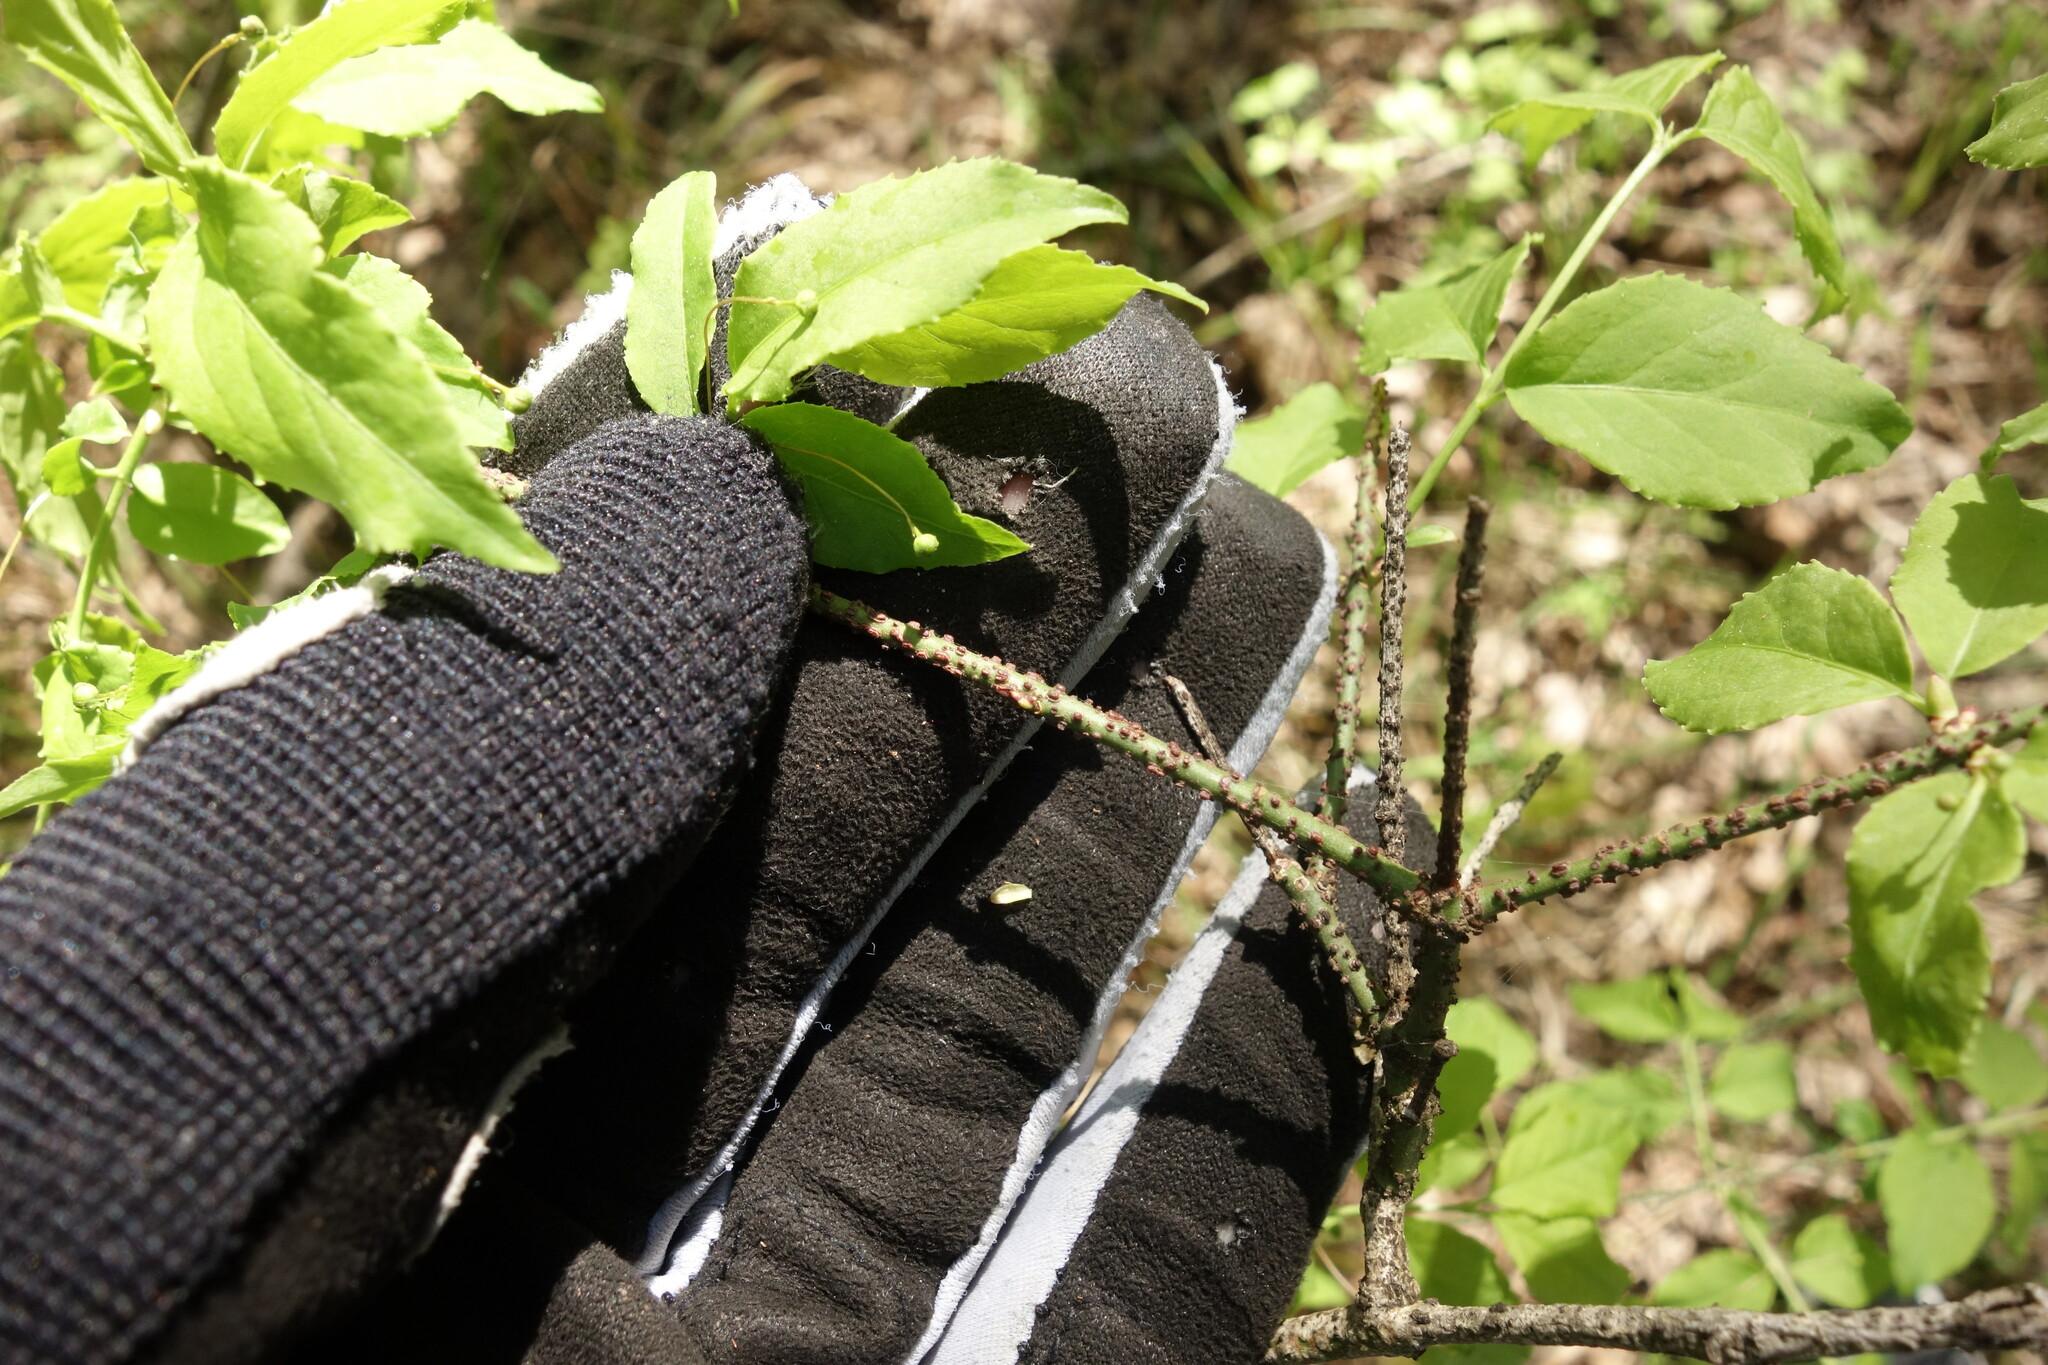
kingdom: Plantae
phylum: Tracheophyta
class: Magnoliopsida
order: Celastrales
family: Celastraceae
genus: Euonymus
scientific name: Euonymus verrucosus
